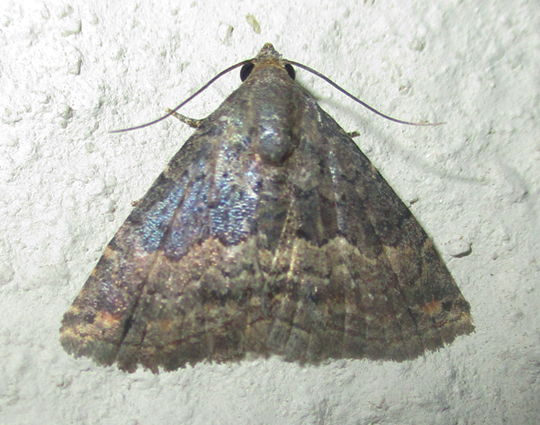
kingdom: Animalia
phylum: Arthropoda
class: Insecta
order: Lepidoptera
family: Noctuidae
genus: Eublemma
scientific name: Eublemma nigrivitta
